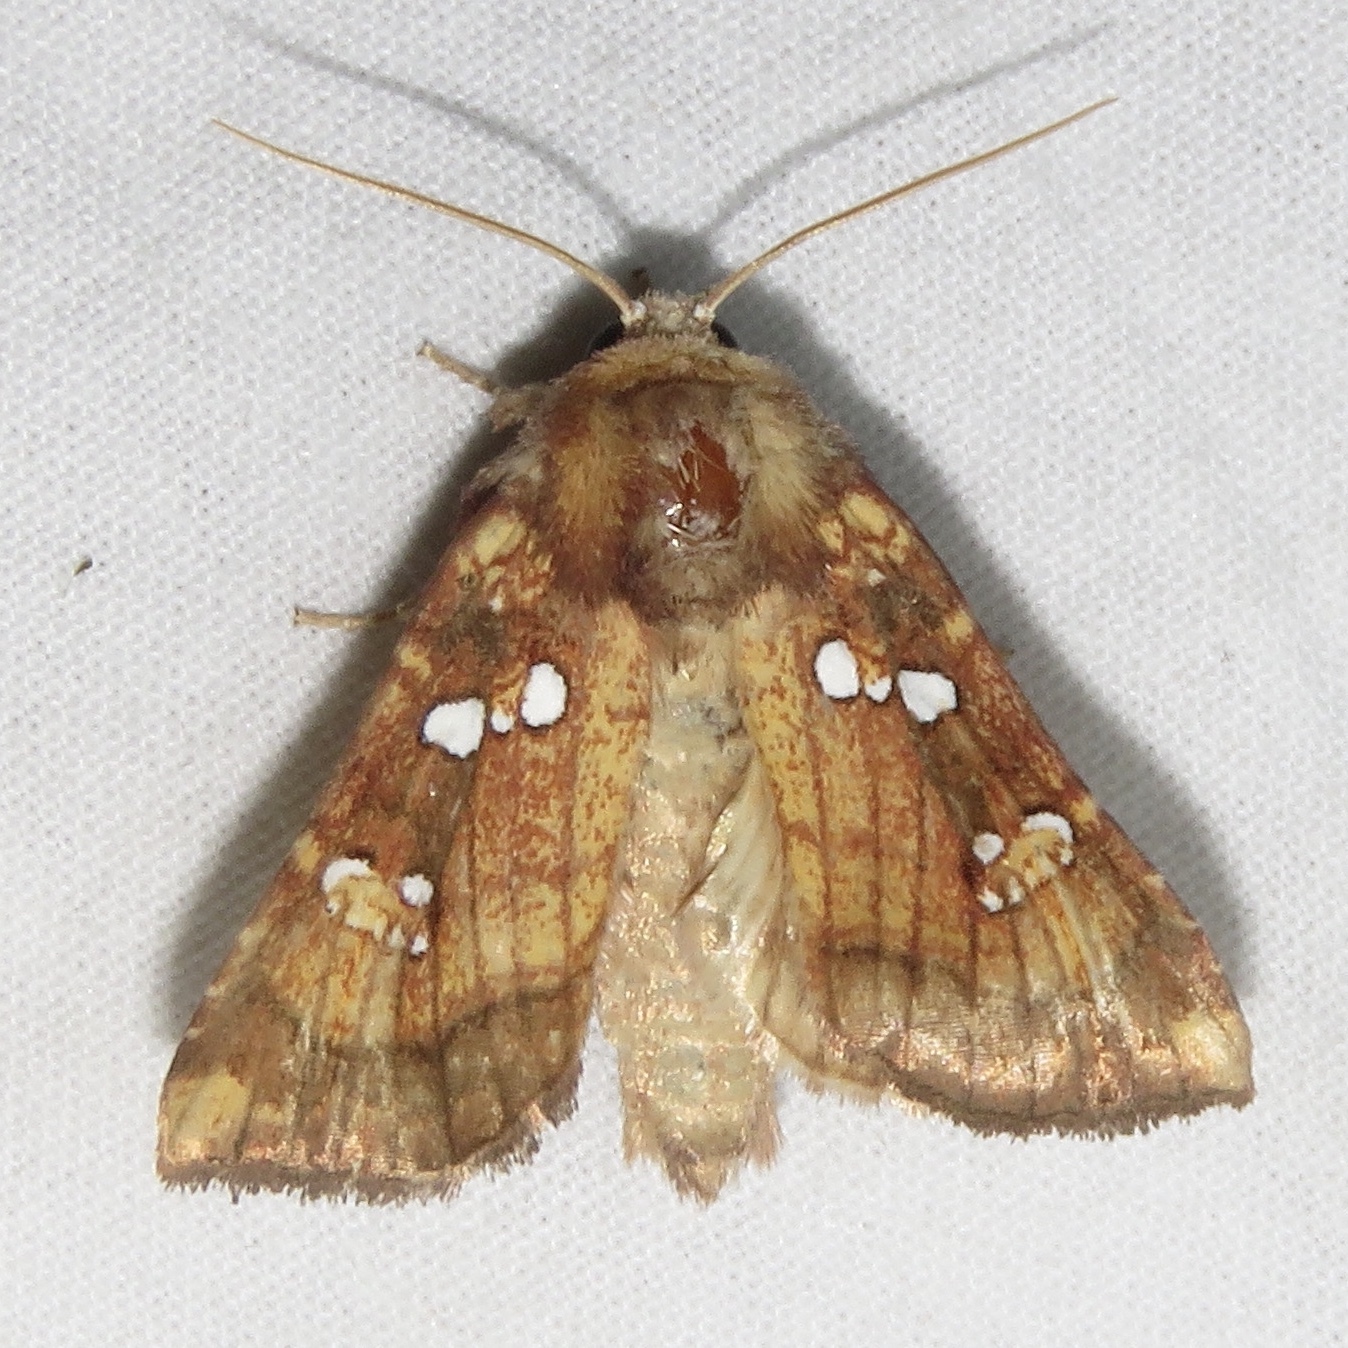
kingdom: Animalia
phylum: Arthropoda
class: Insecta
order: Lepidoptera
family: Noctuidae
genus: Papaipema
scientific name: Papaipema arctivorens
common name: Northern burdock borer moth
